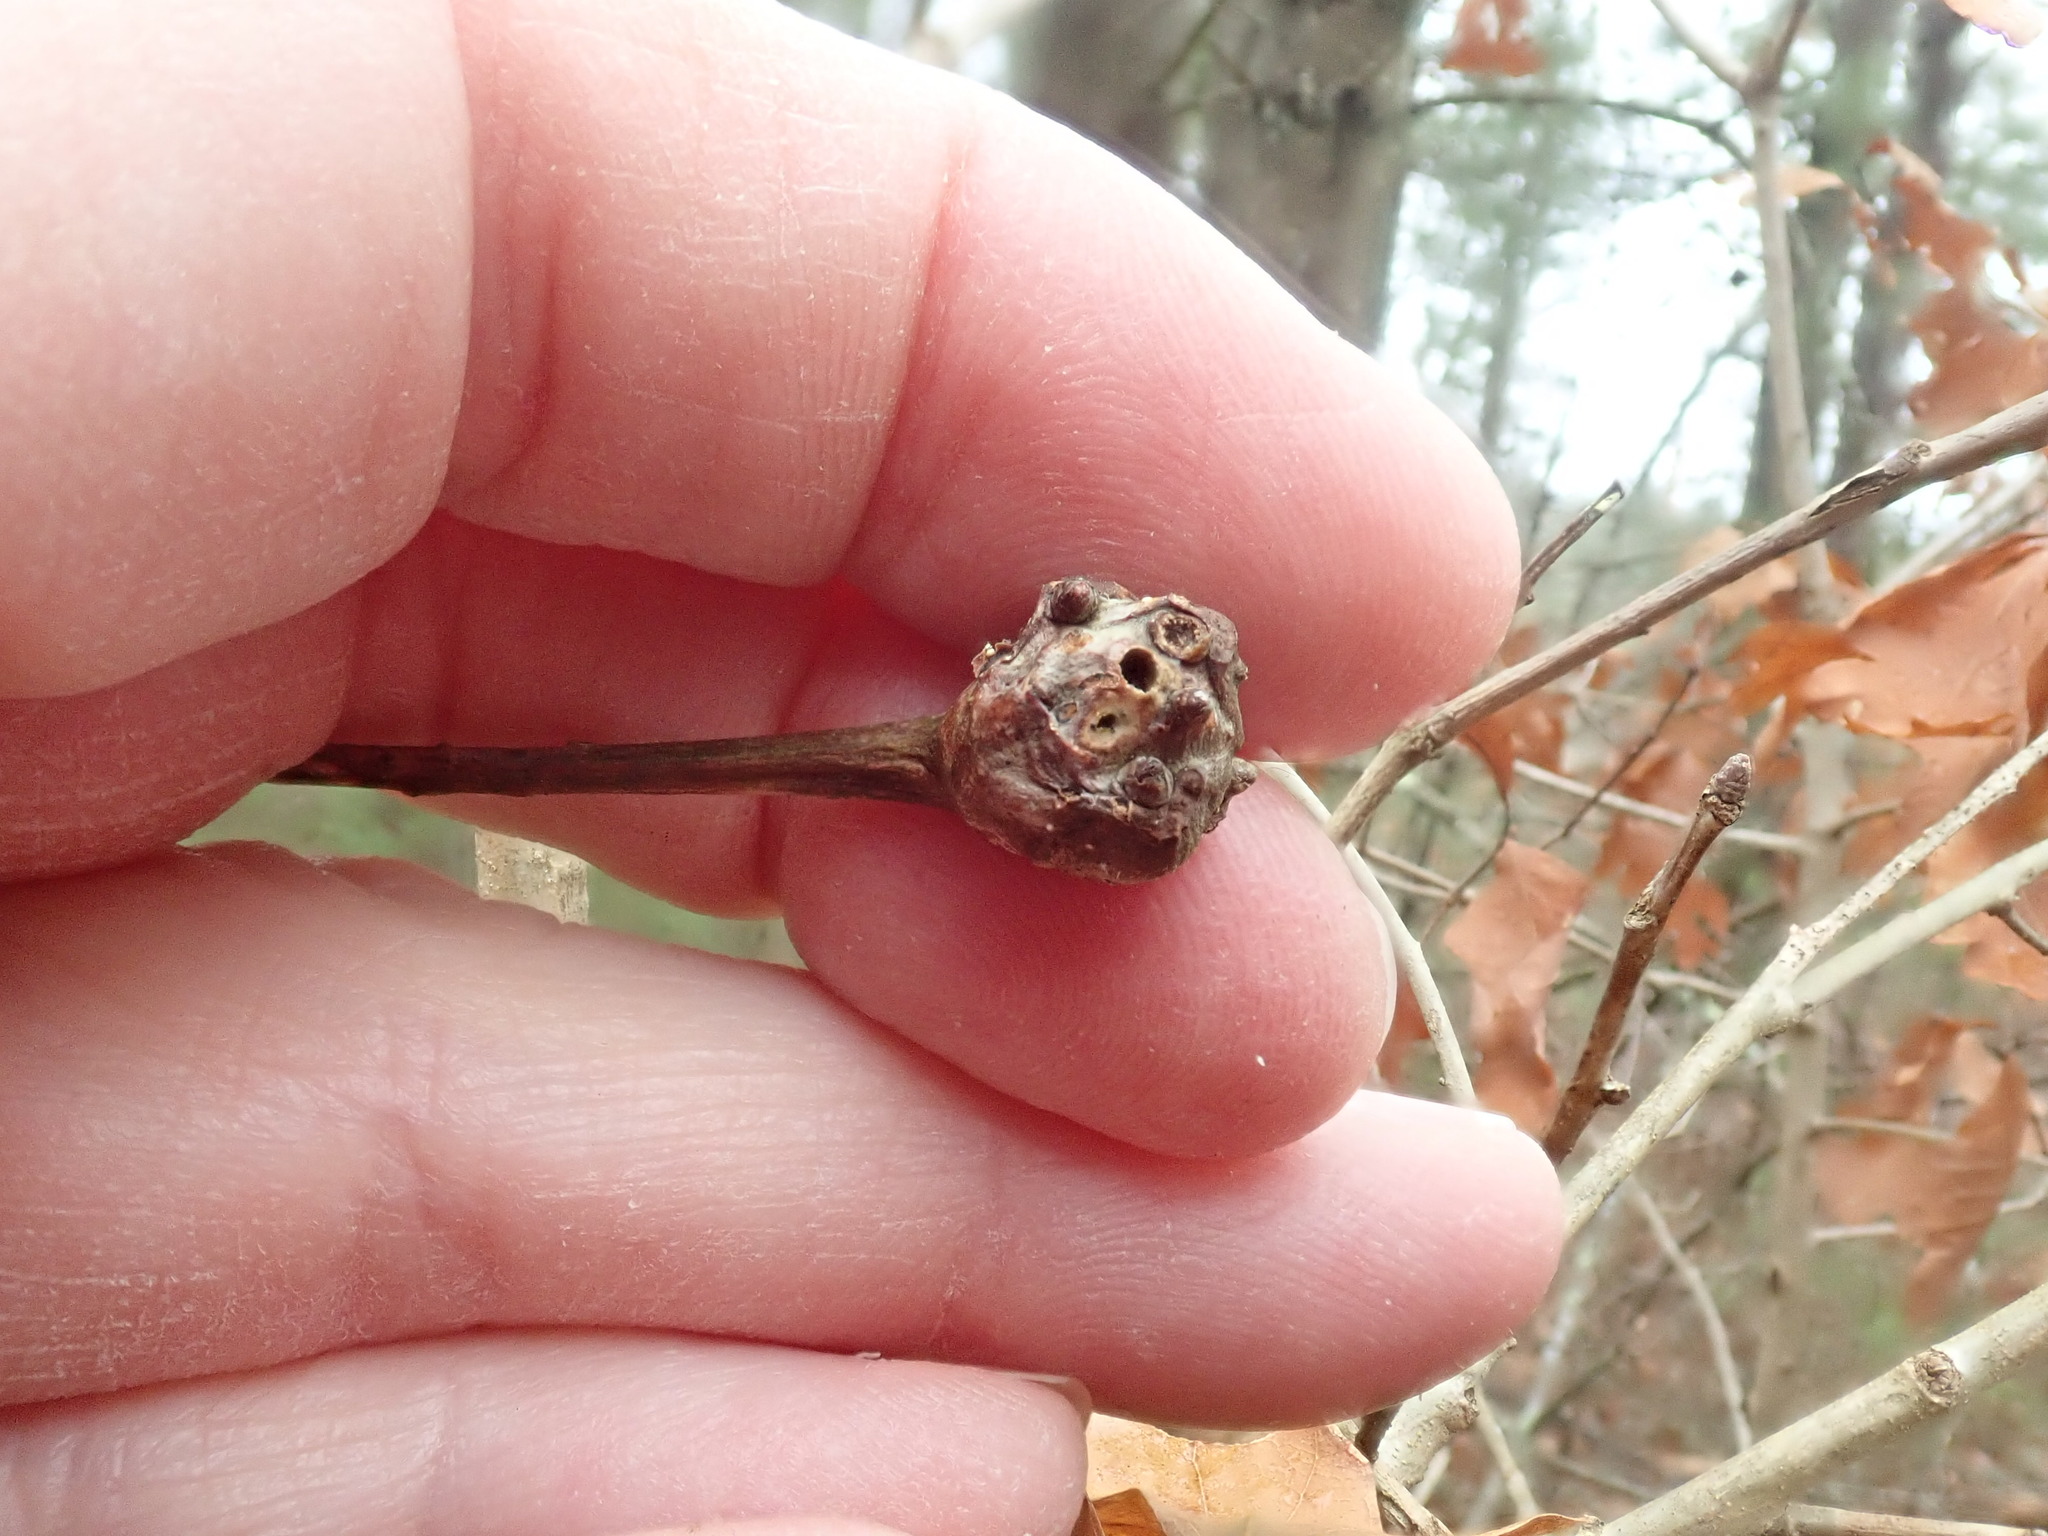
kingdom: Animalia
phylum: Arthropoda
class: Insecta
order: Hymenoptera
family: Cynipidae
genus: Callirhytis
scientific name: Callirhytis clavula
